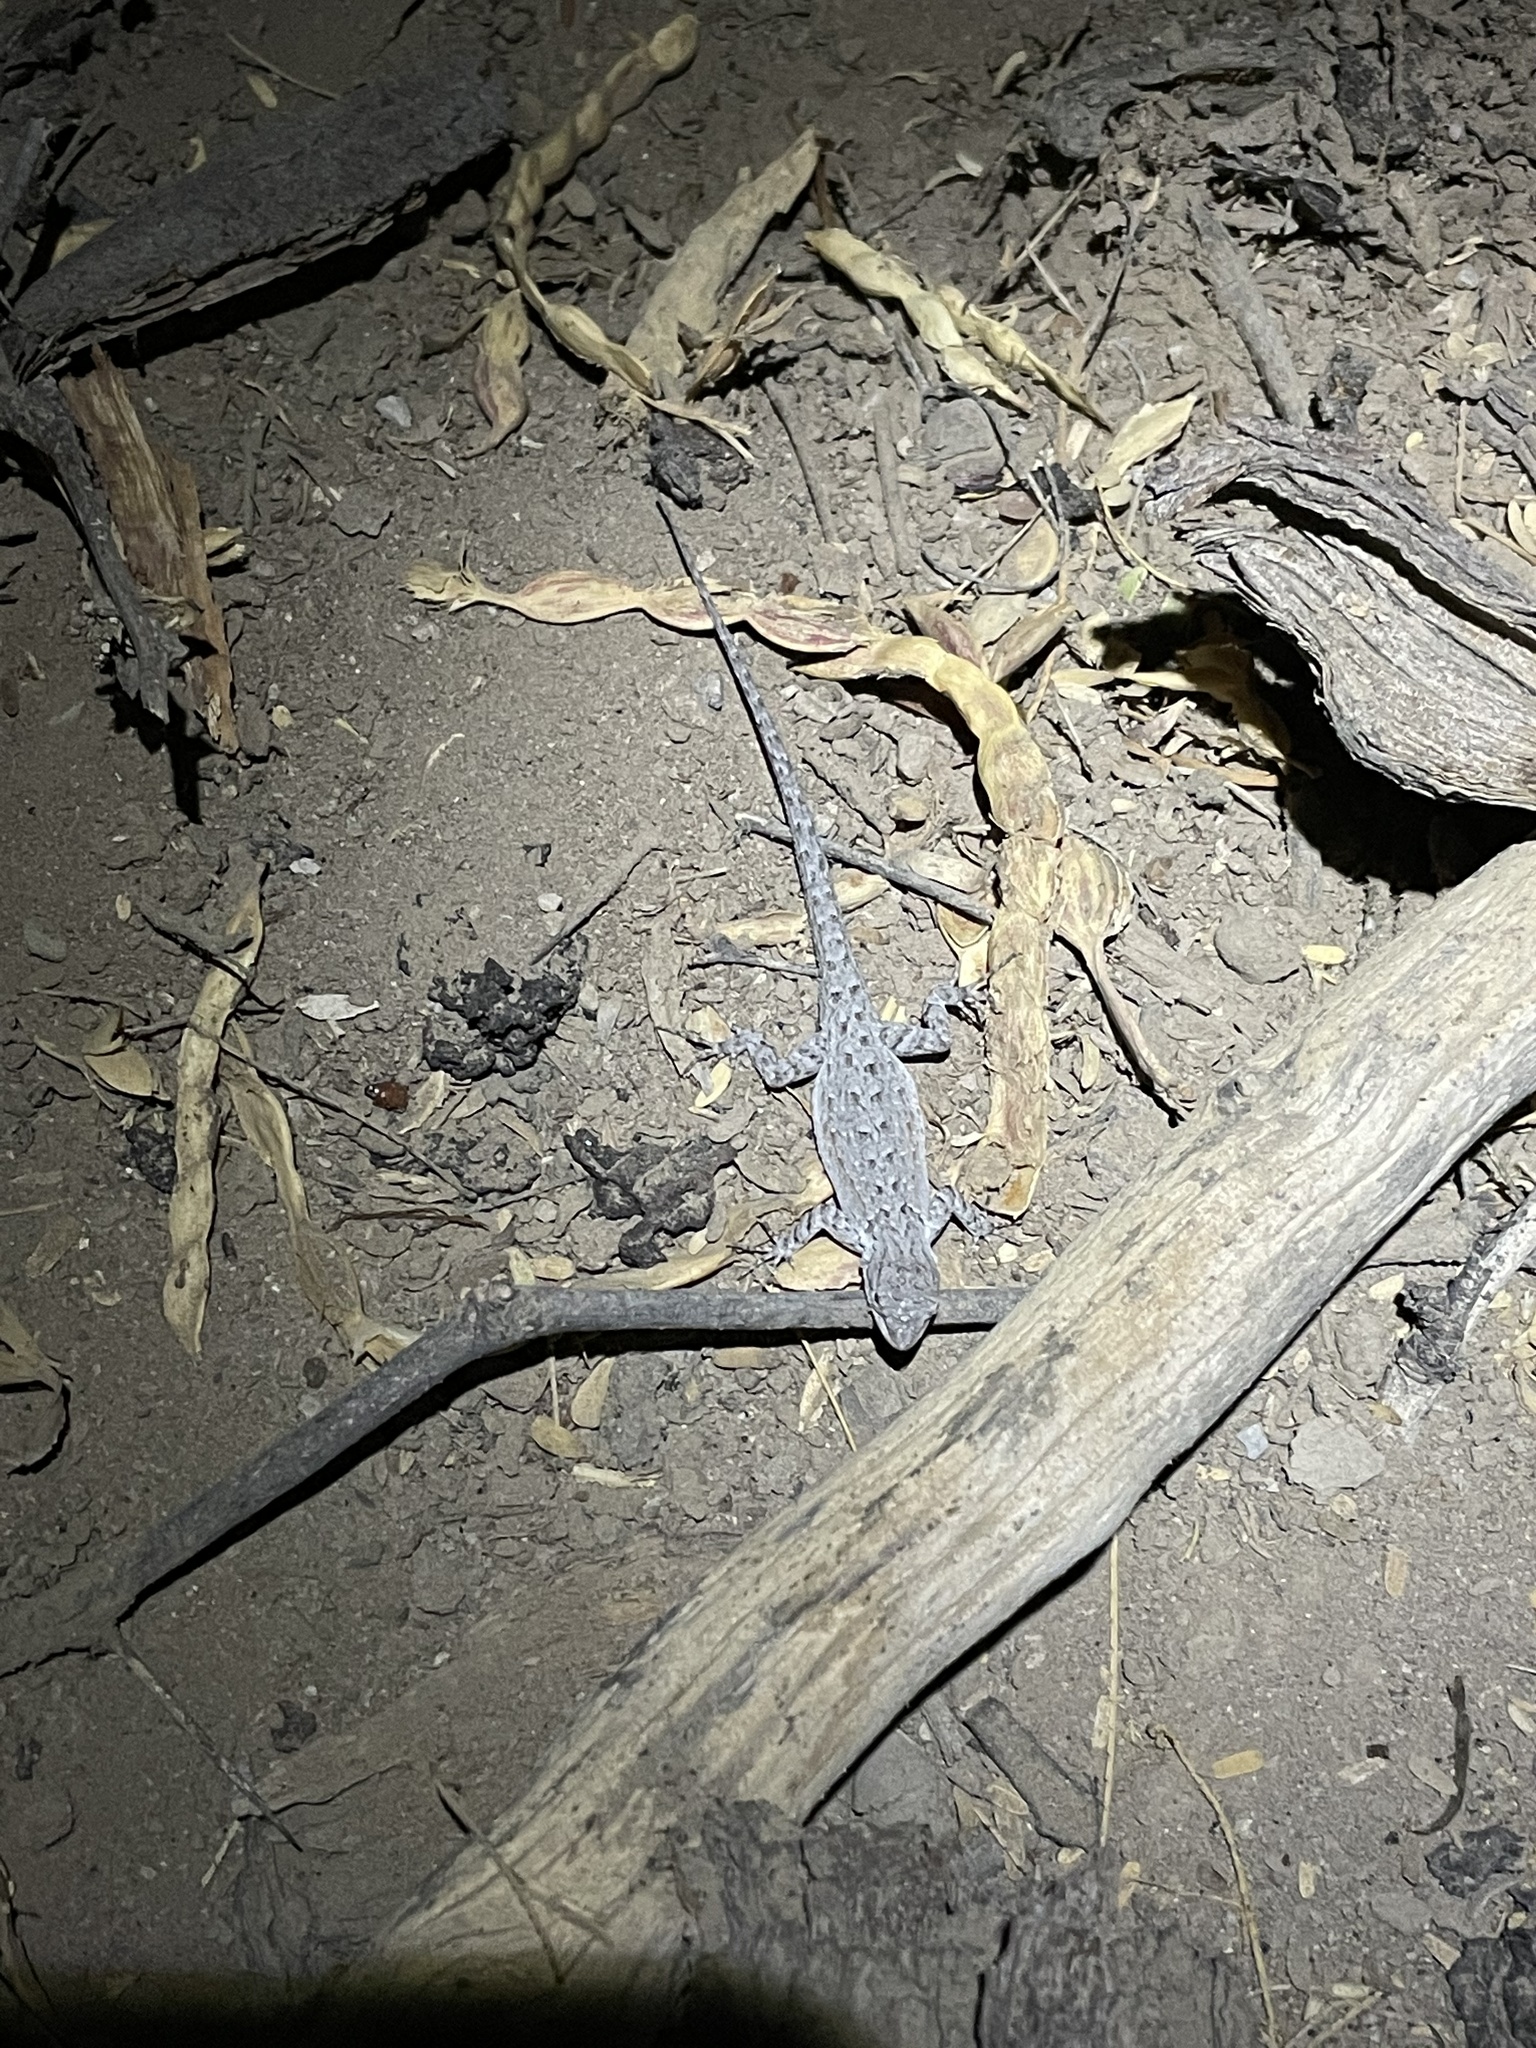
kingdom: Animalia
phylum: Chordata
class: Squamata
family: Phrynosomatidae
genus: Urosaurus
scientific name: Urosaurus nigricauda
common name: Baja california brush lizard
